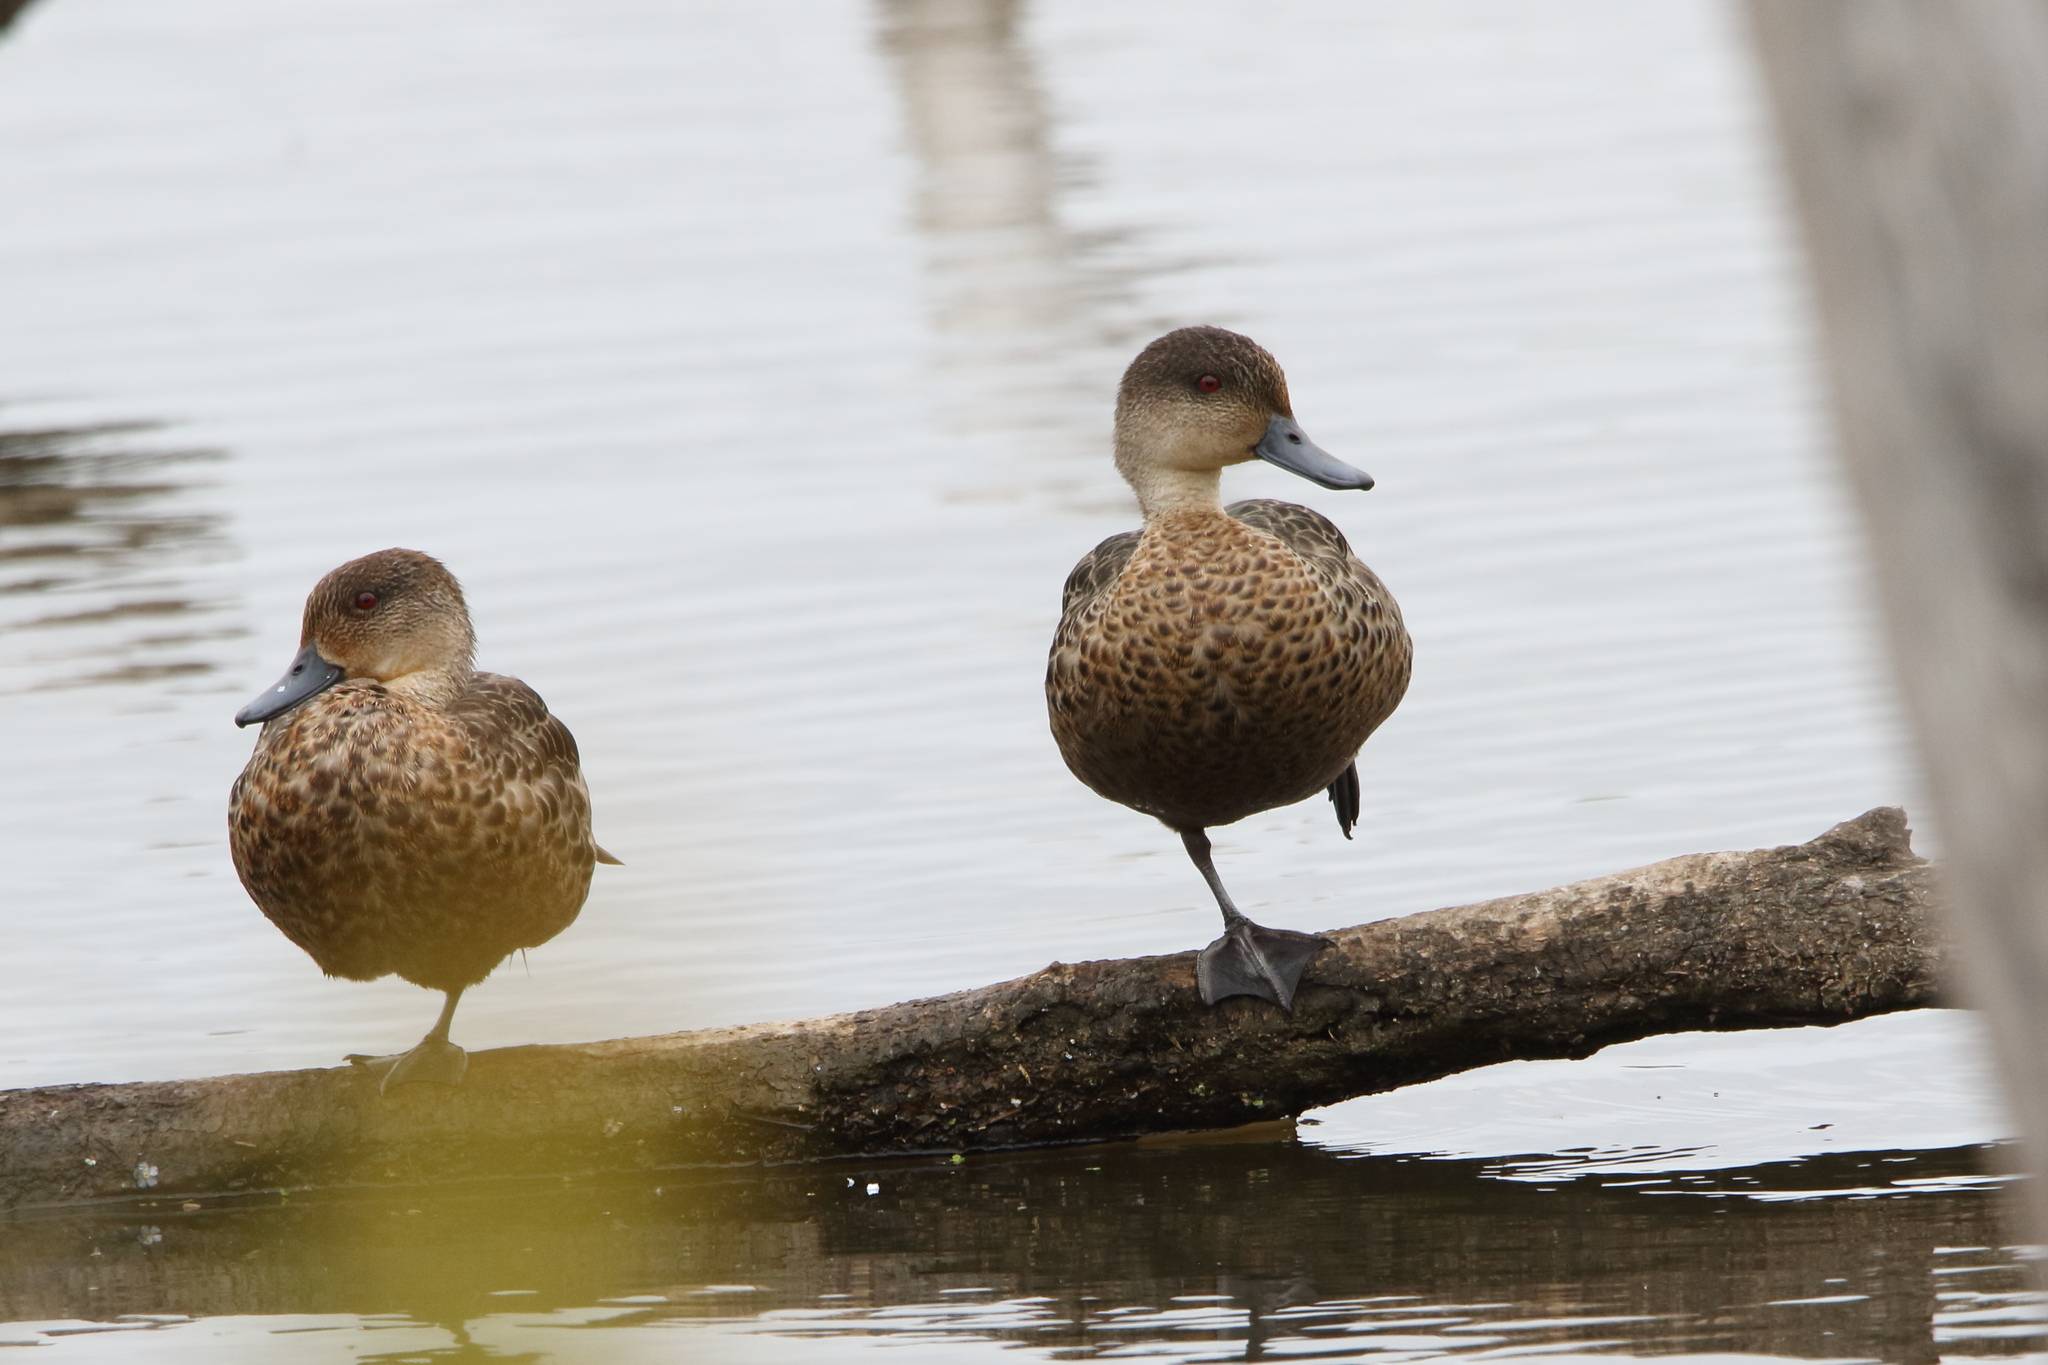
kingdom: Animalia
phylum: Chordata
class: Aves
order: Anseriformes
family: Anatidae
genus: Anas
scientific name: Anas gracilis
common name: Grey teal
